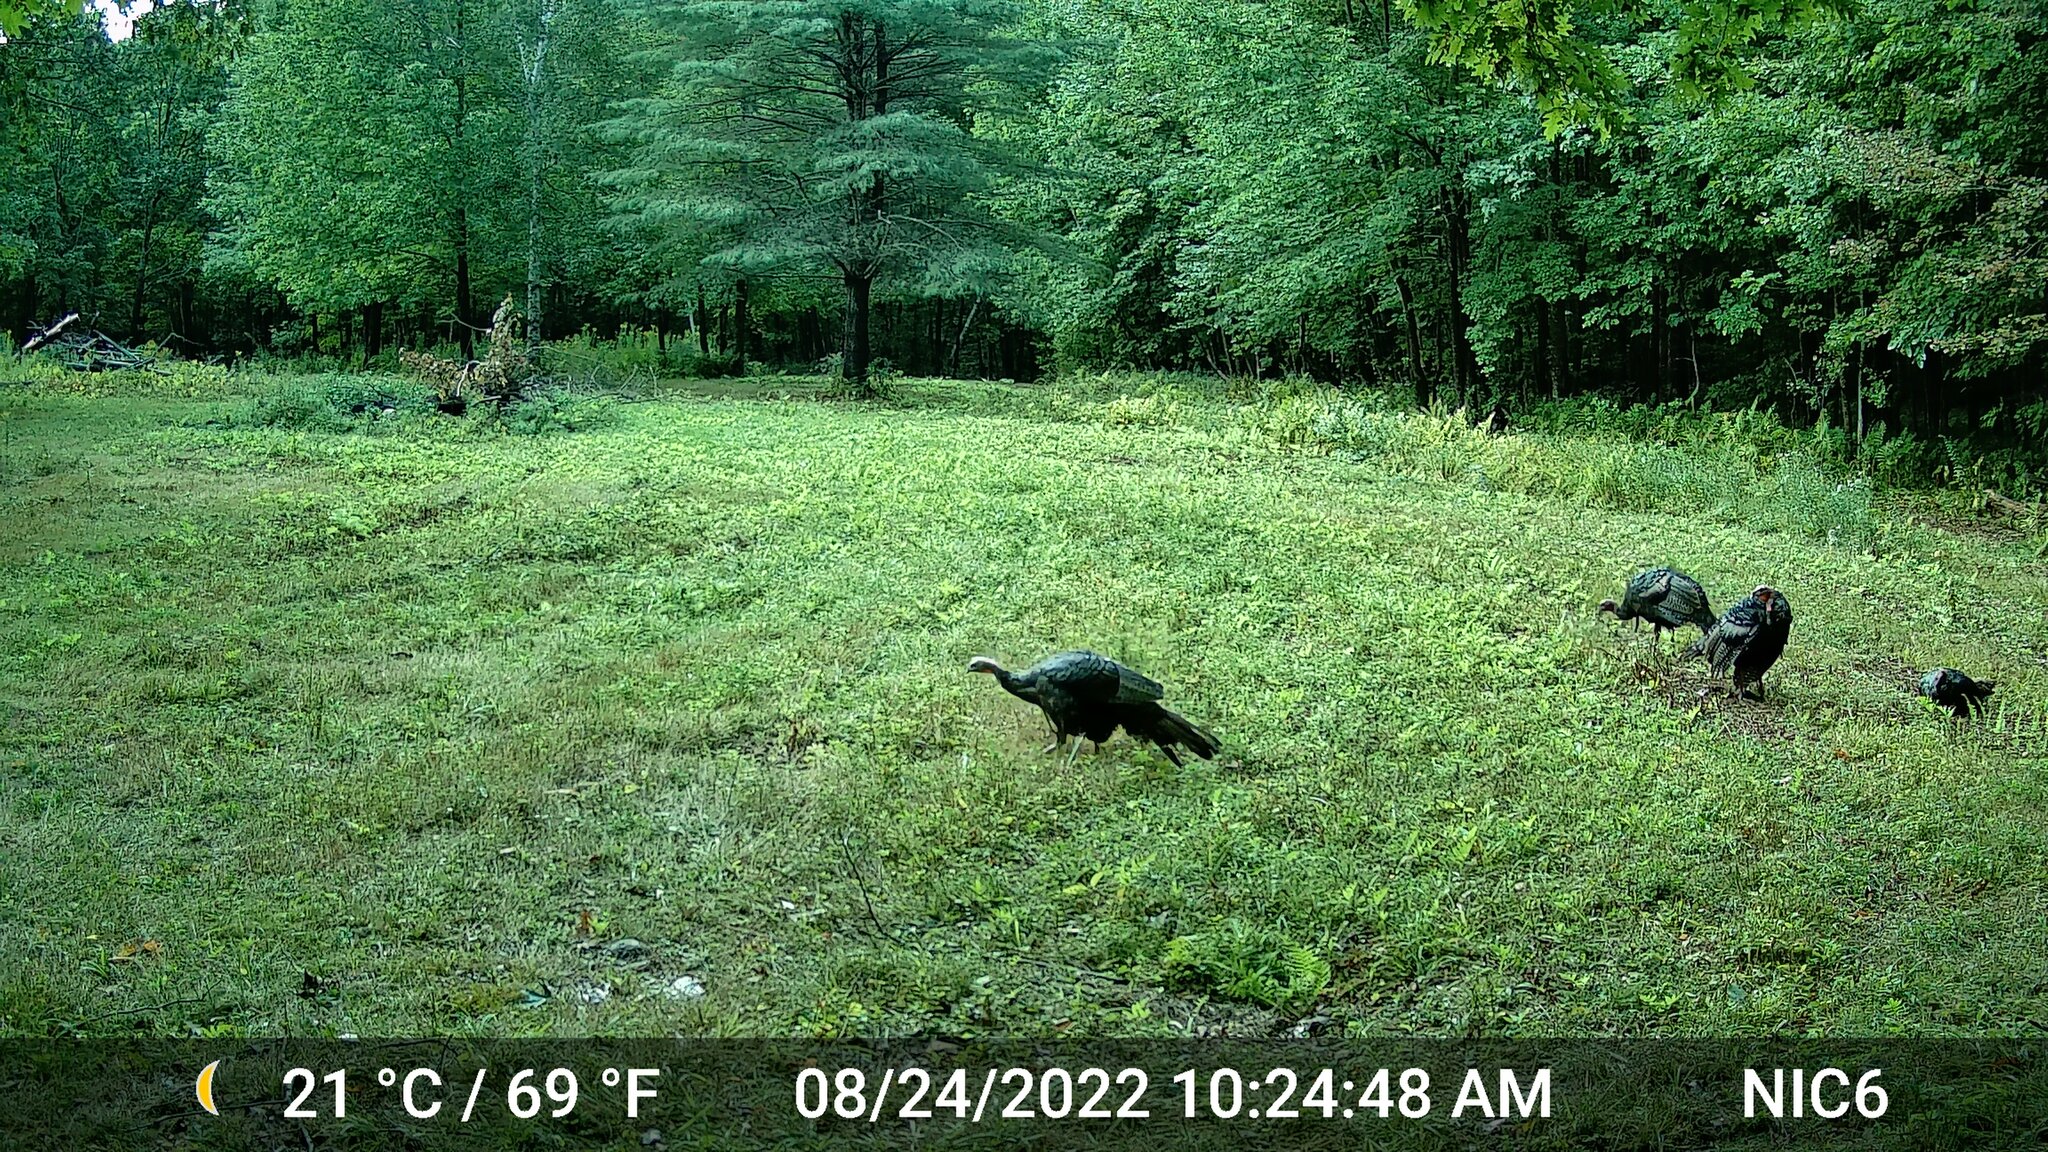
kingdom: Animalia
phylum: Chordata
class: Aves
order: Galliformes
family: Phasianidae
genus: Meleagris
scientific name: Meleagris gallopavo
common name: Wild turkey
